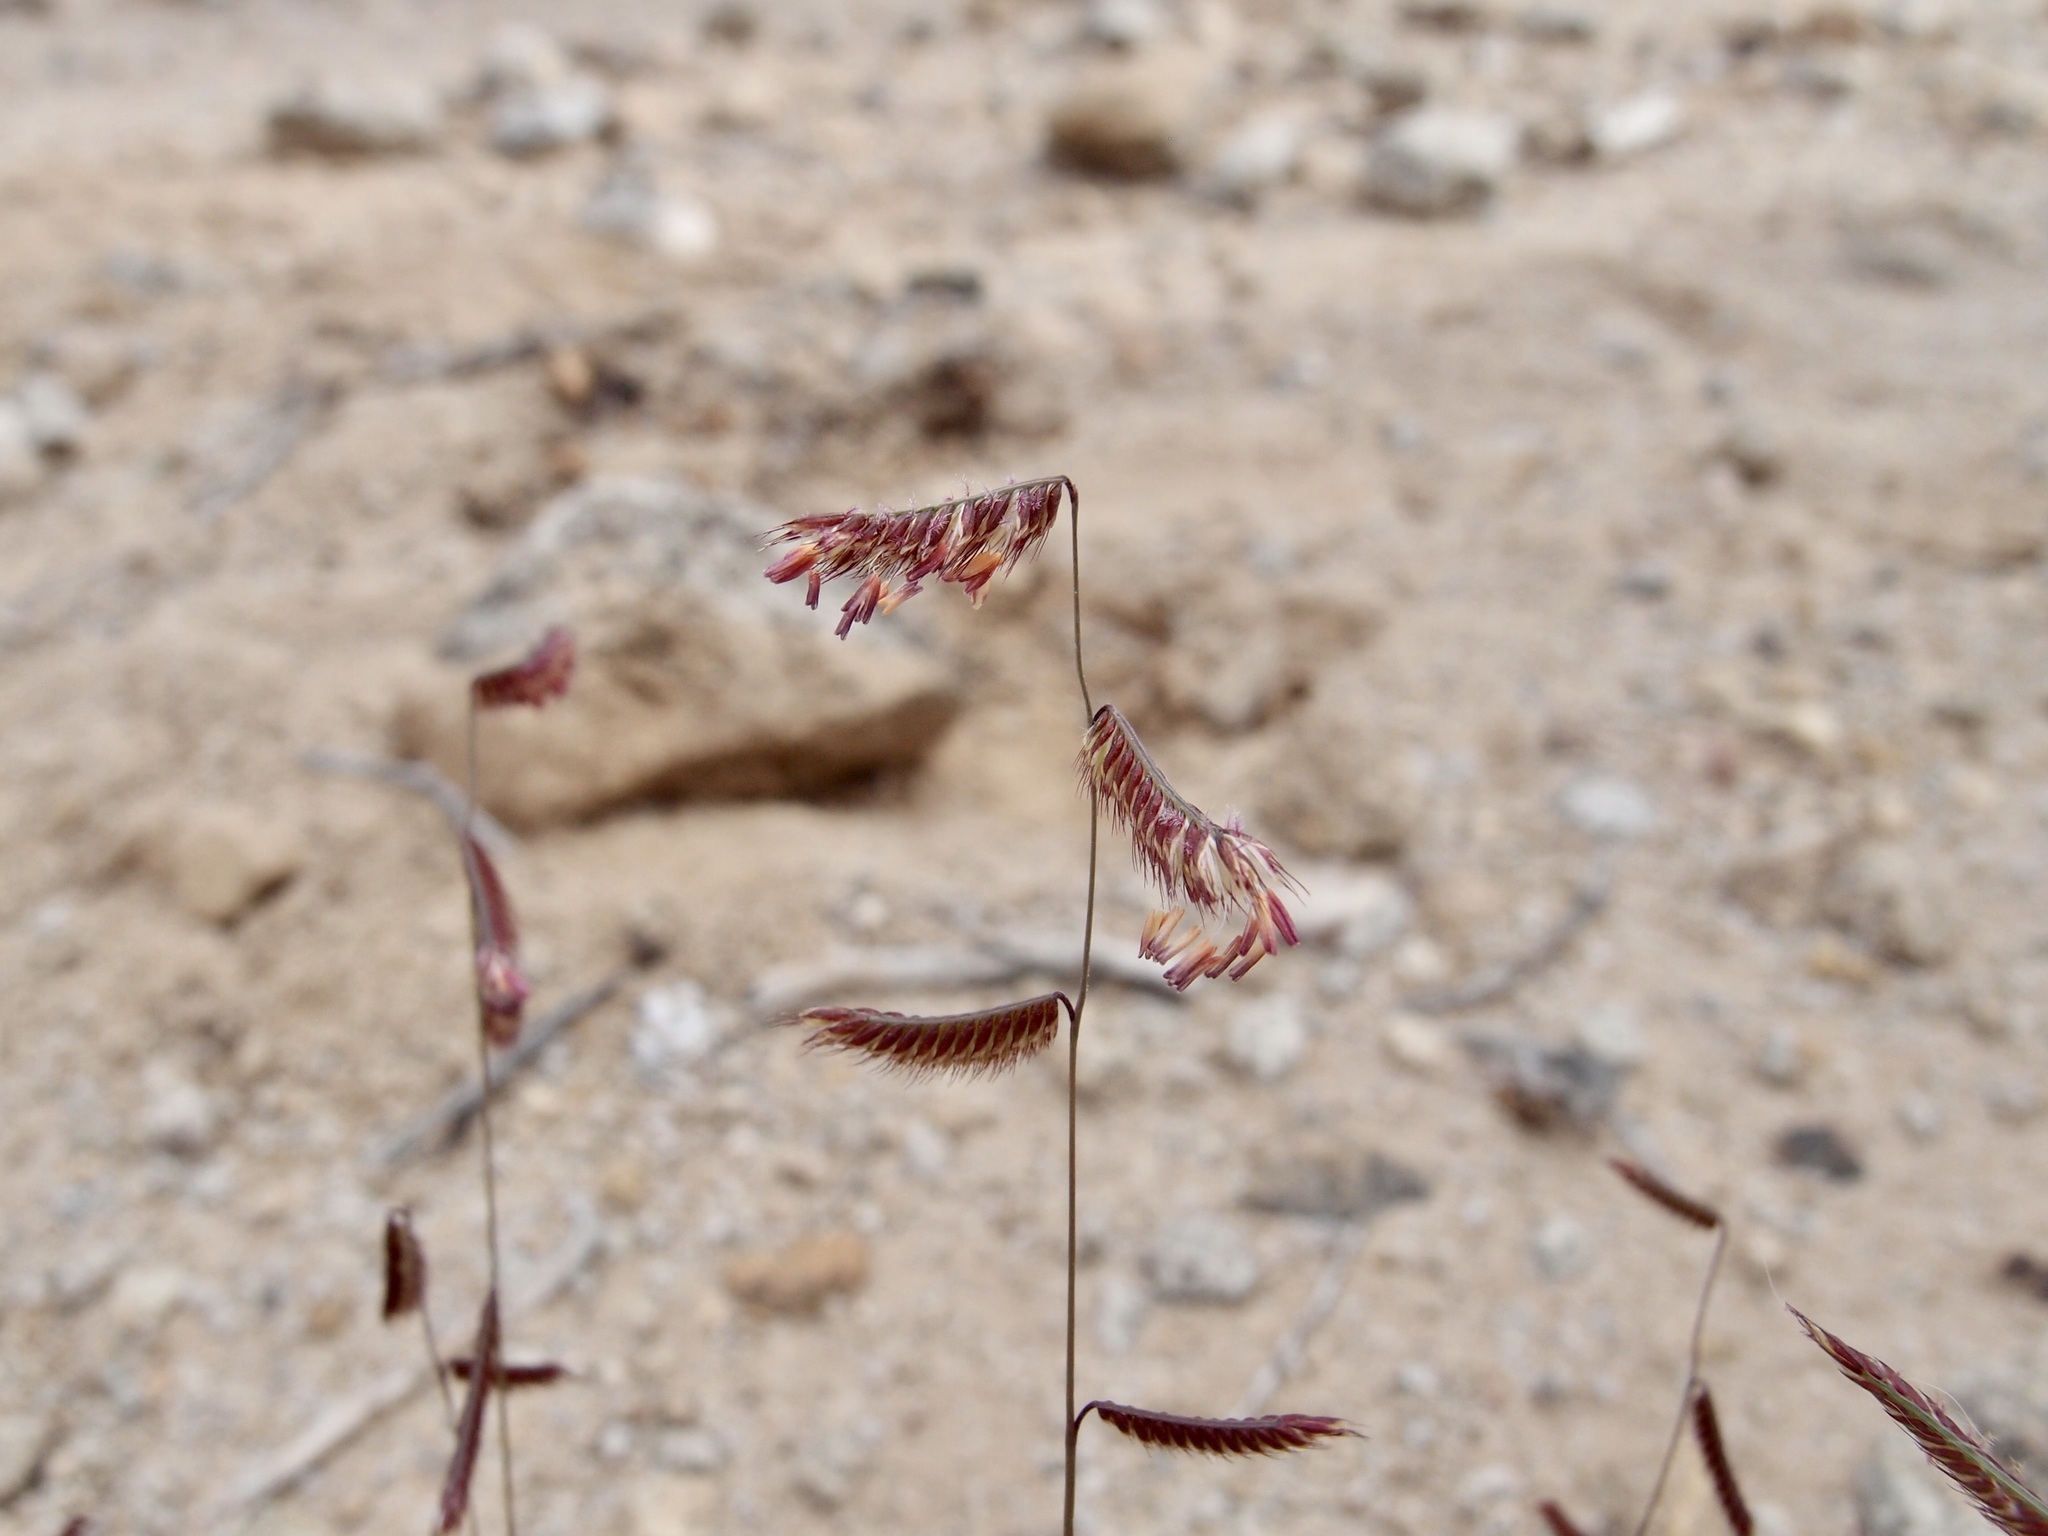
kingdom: Plantae
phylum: Tracheophyta
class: Liliopsida
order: Poales
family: Poaceae
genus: Bouteloua
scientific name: Bouteloua barbata
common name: Six-weeks grama
